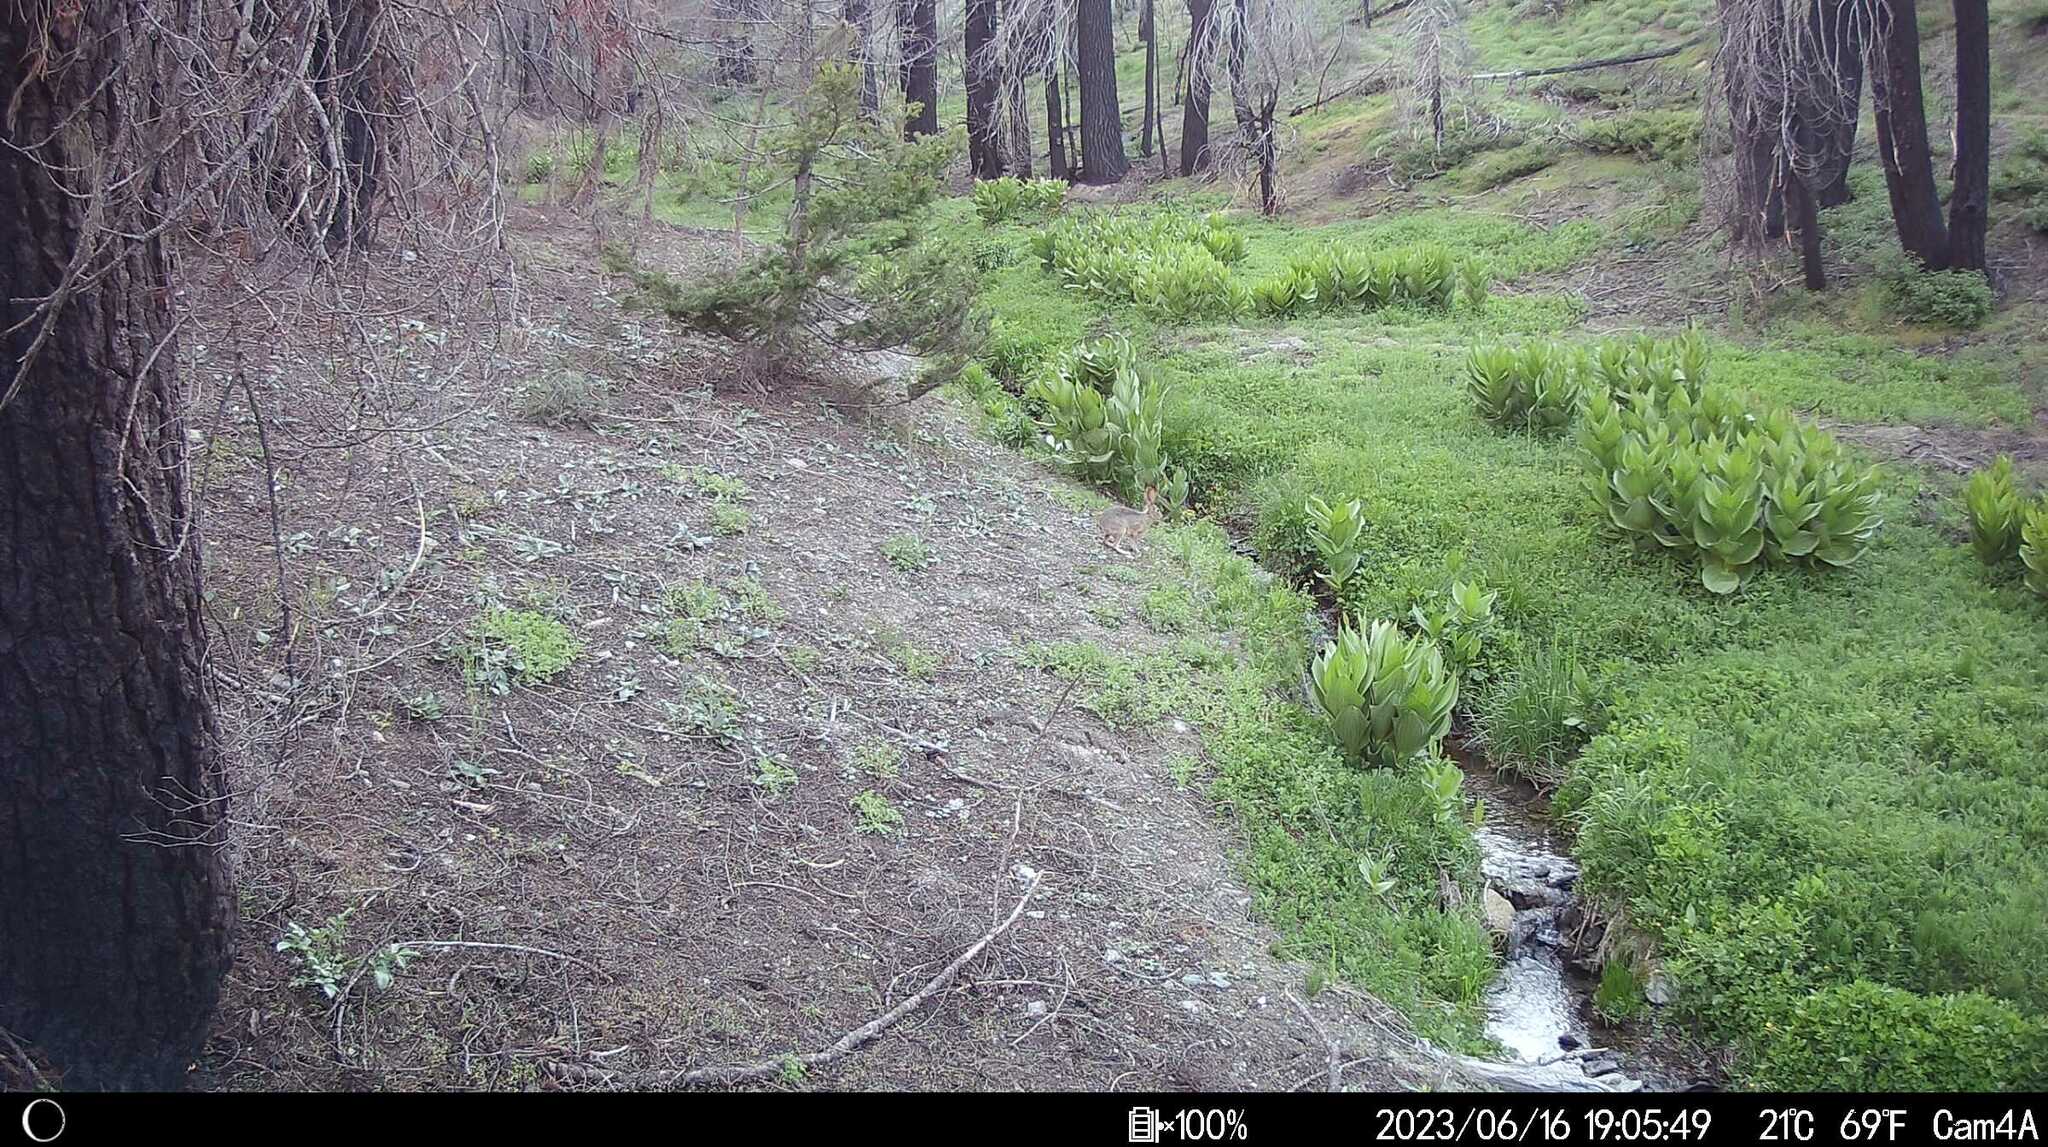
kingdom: Animalia
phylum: Chordata
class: Mammalia
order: Lagomorpha
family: Leporidae
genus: Lepus
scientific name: Lepus californicus
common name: Black-tailed jackrabbit
